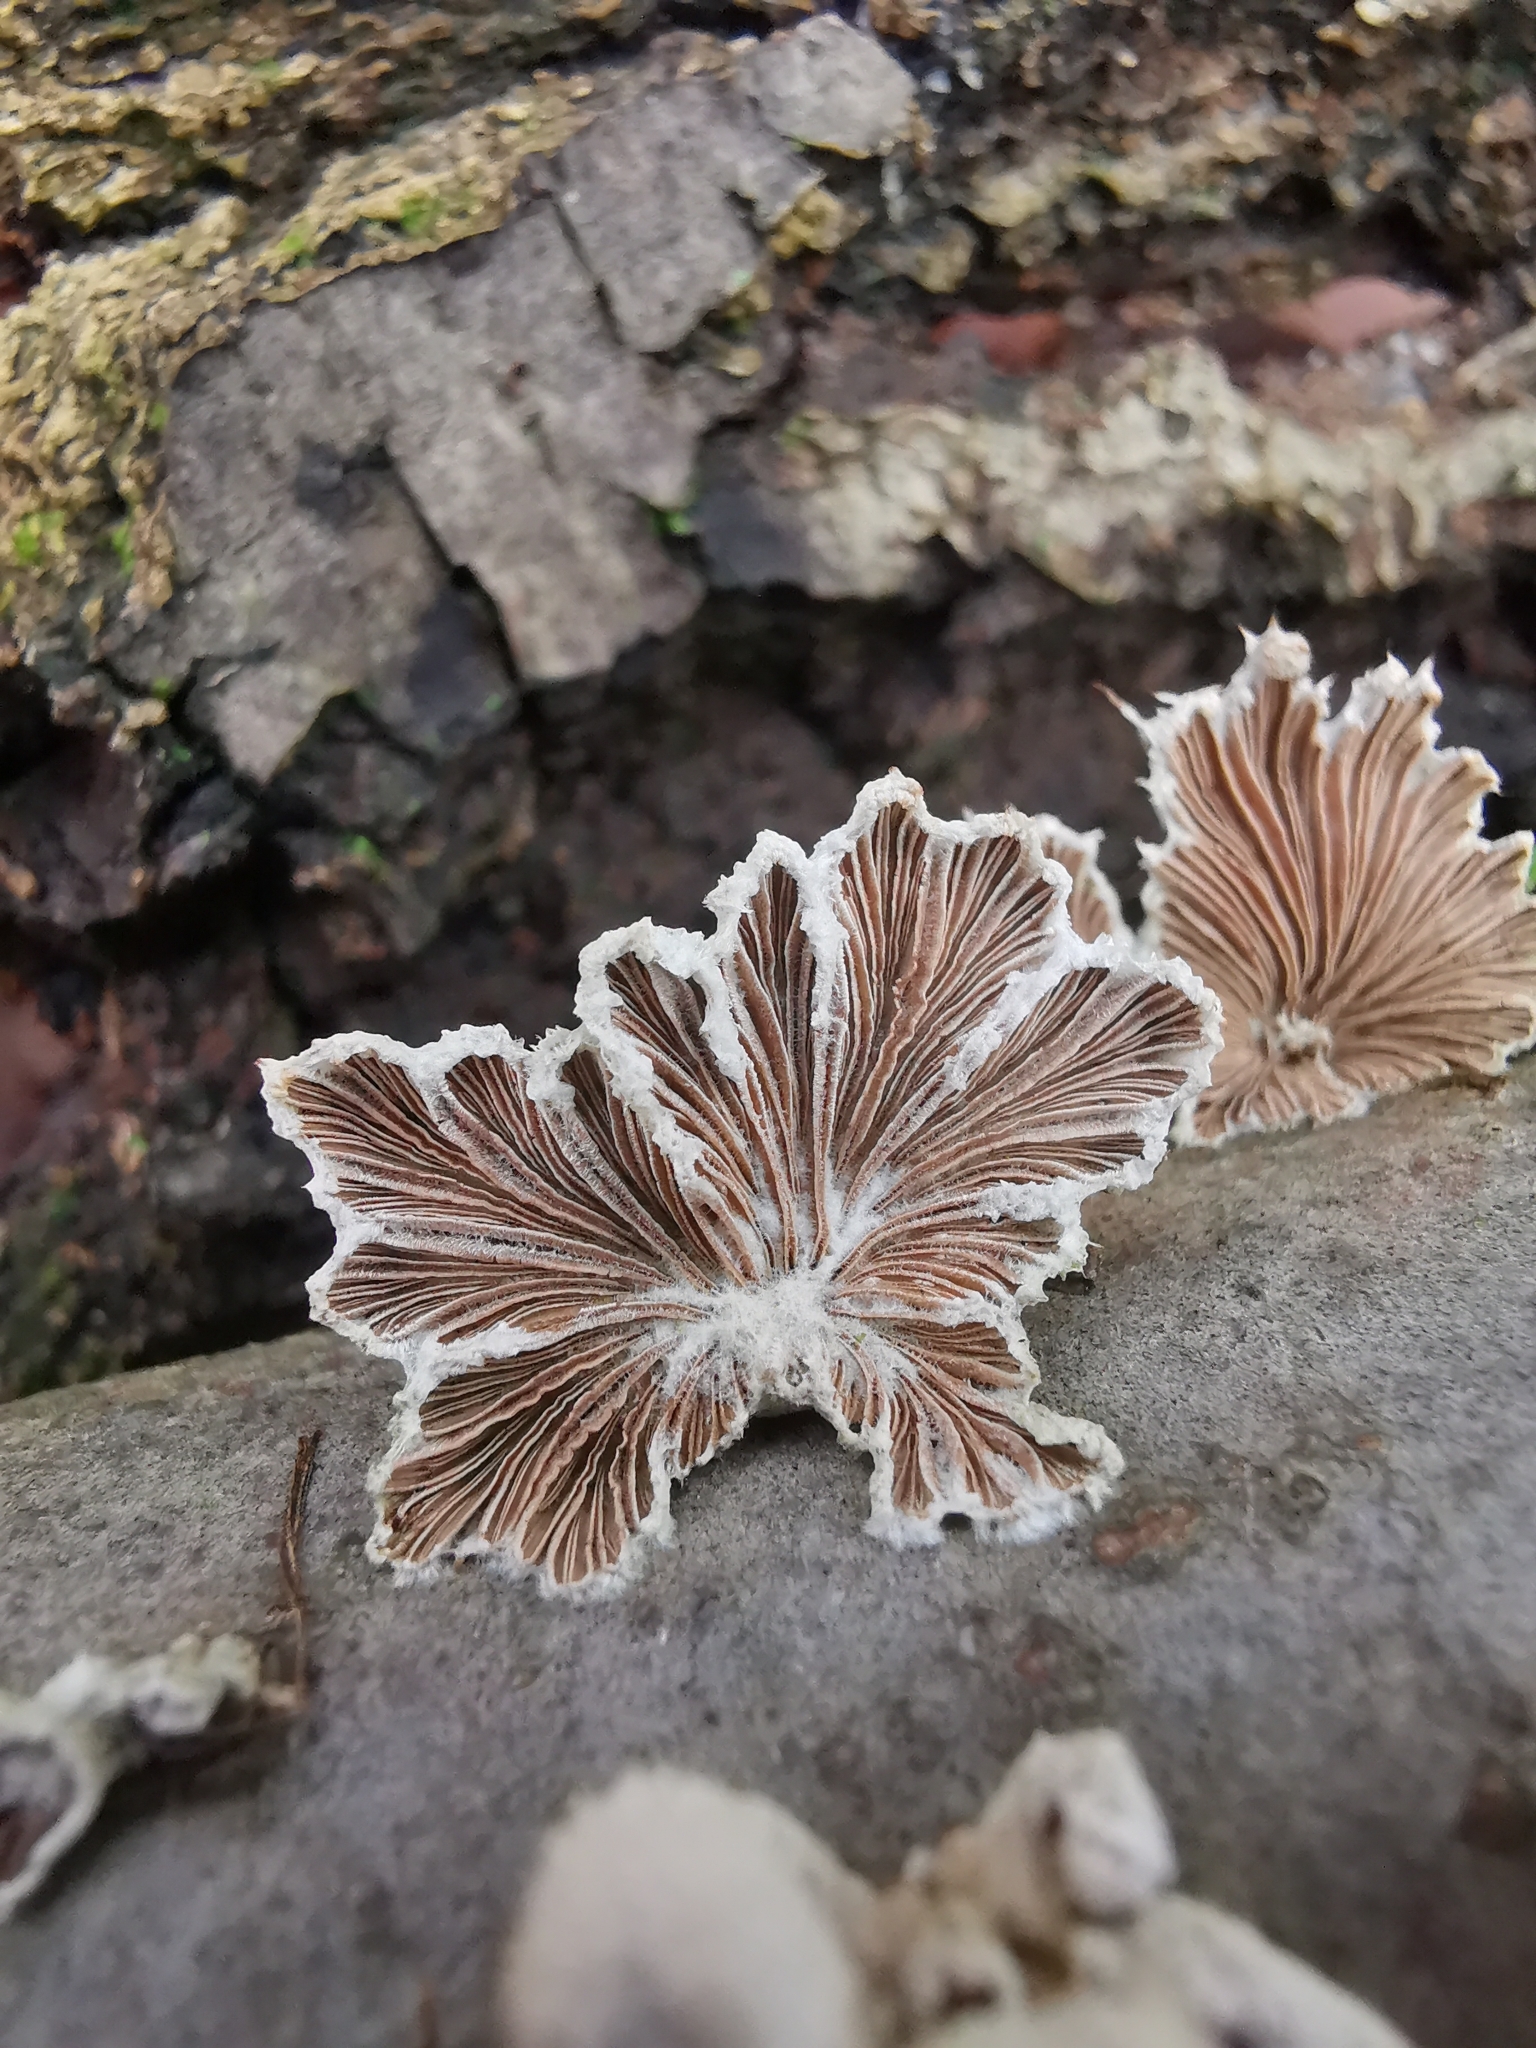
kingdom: Fungi
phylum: Basidiomycota
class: Agaricomycetes
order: Agaricales
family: Schizophyllaceae
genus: Schizophyllum
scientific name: Schizophyllum commune
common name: Common porecrust
